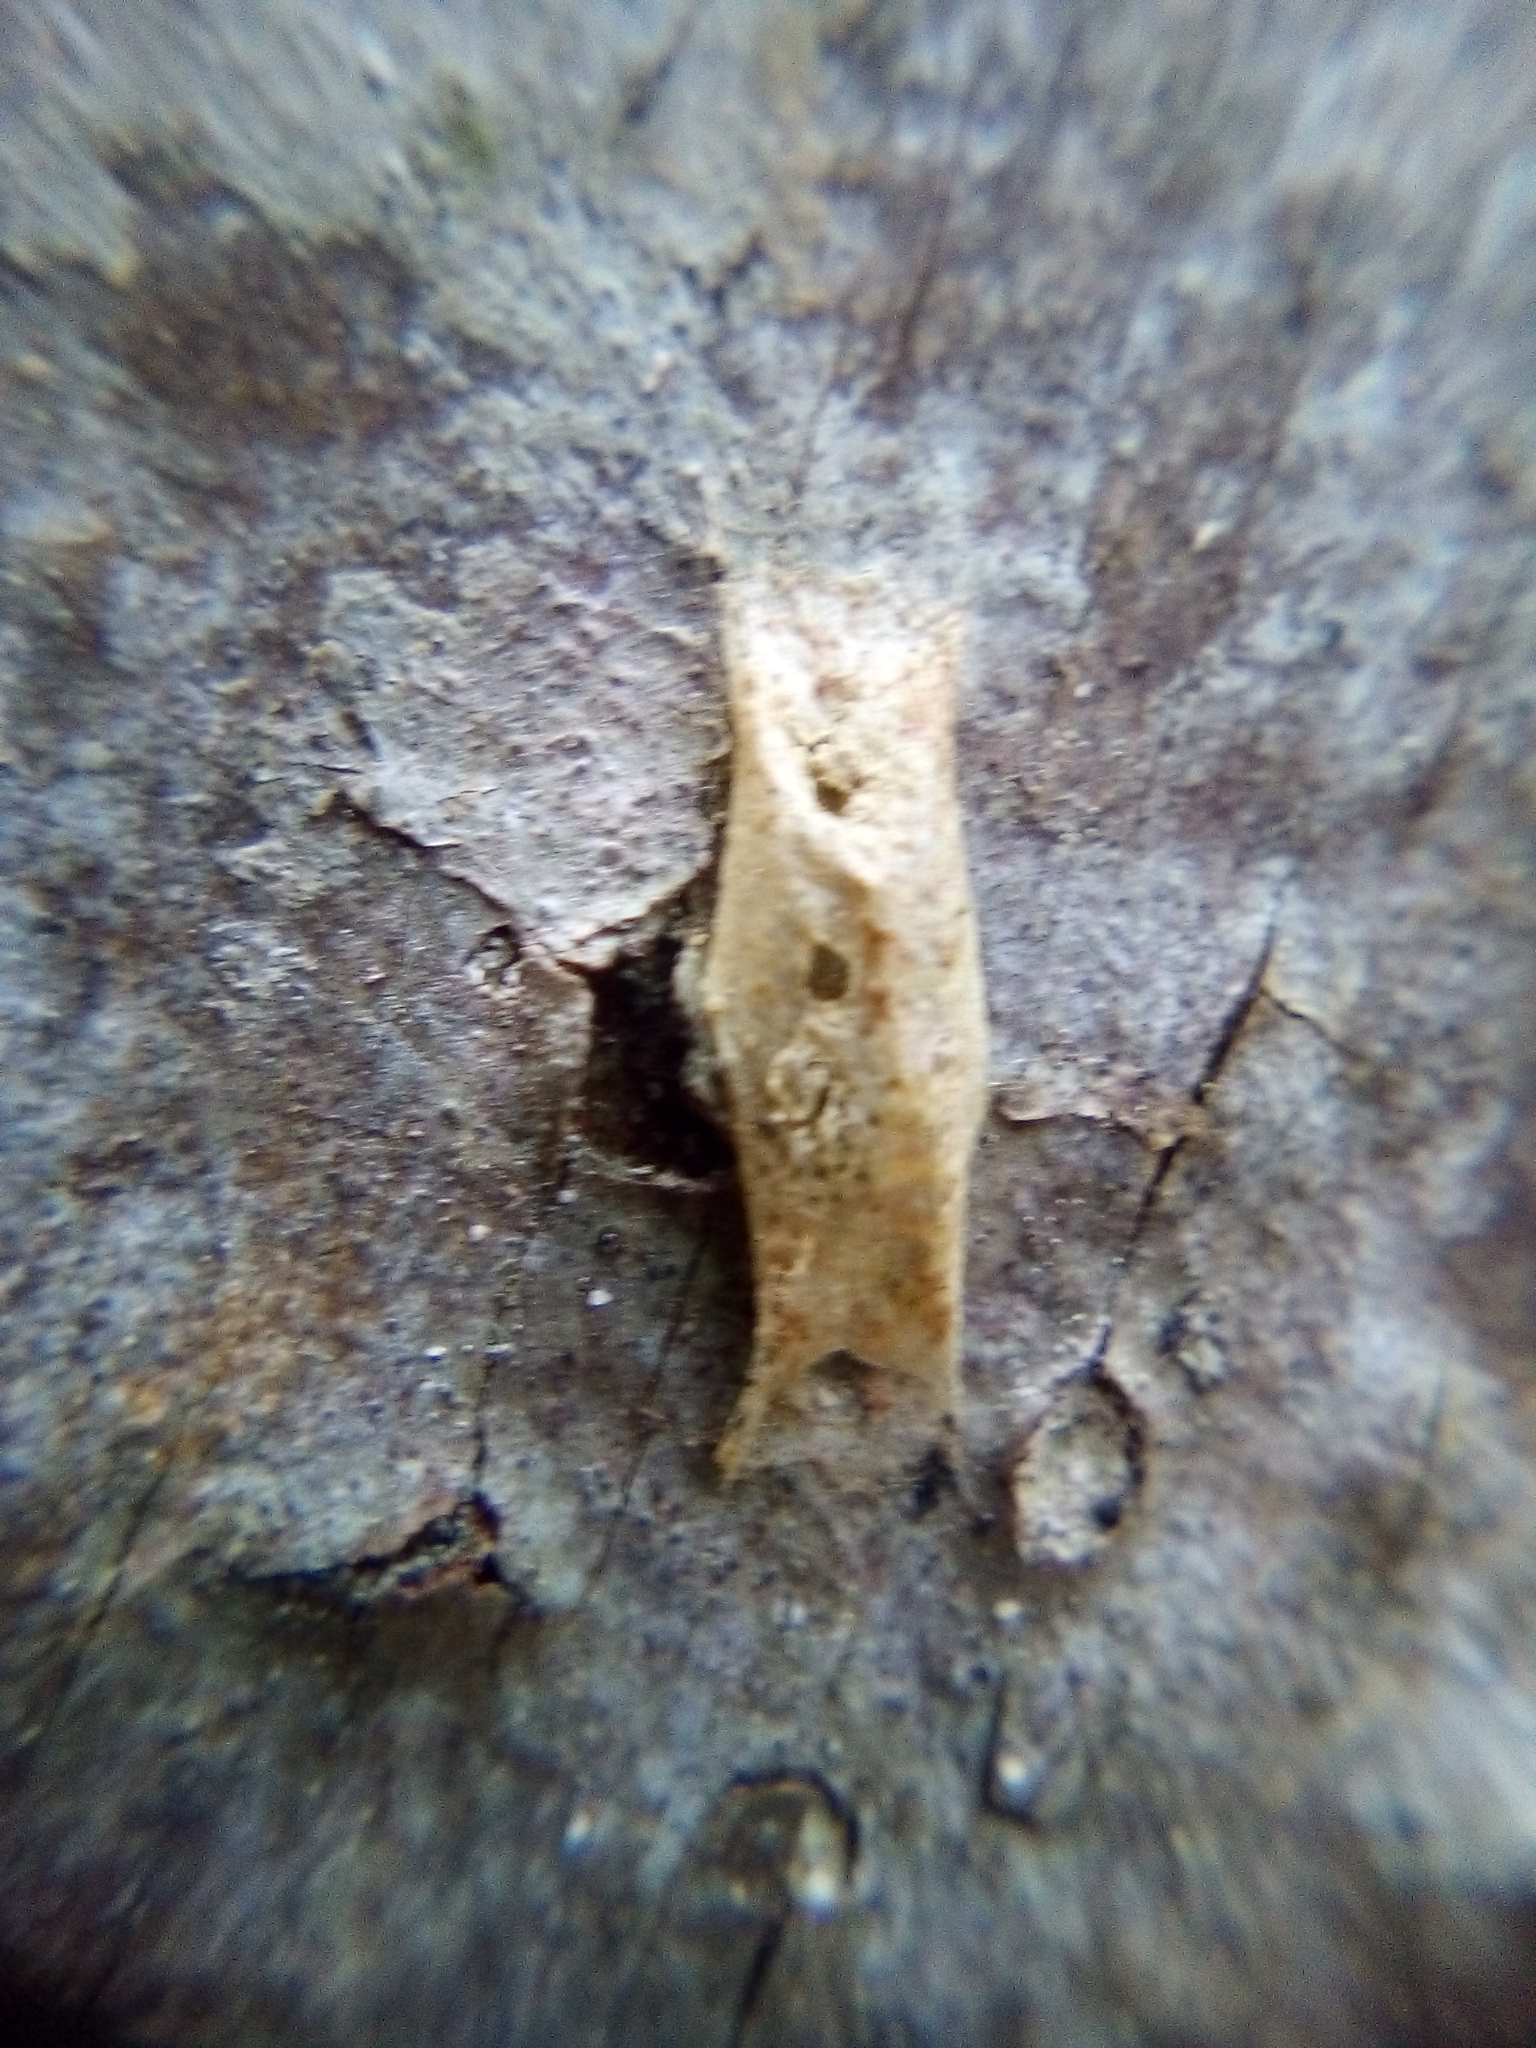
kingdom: Animalia
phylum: Arthropoda
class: Insecta
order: Lepidoptera
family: Plutellidae
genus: Doxophyrtis
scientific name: Doxophyrtis hydrocosma
